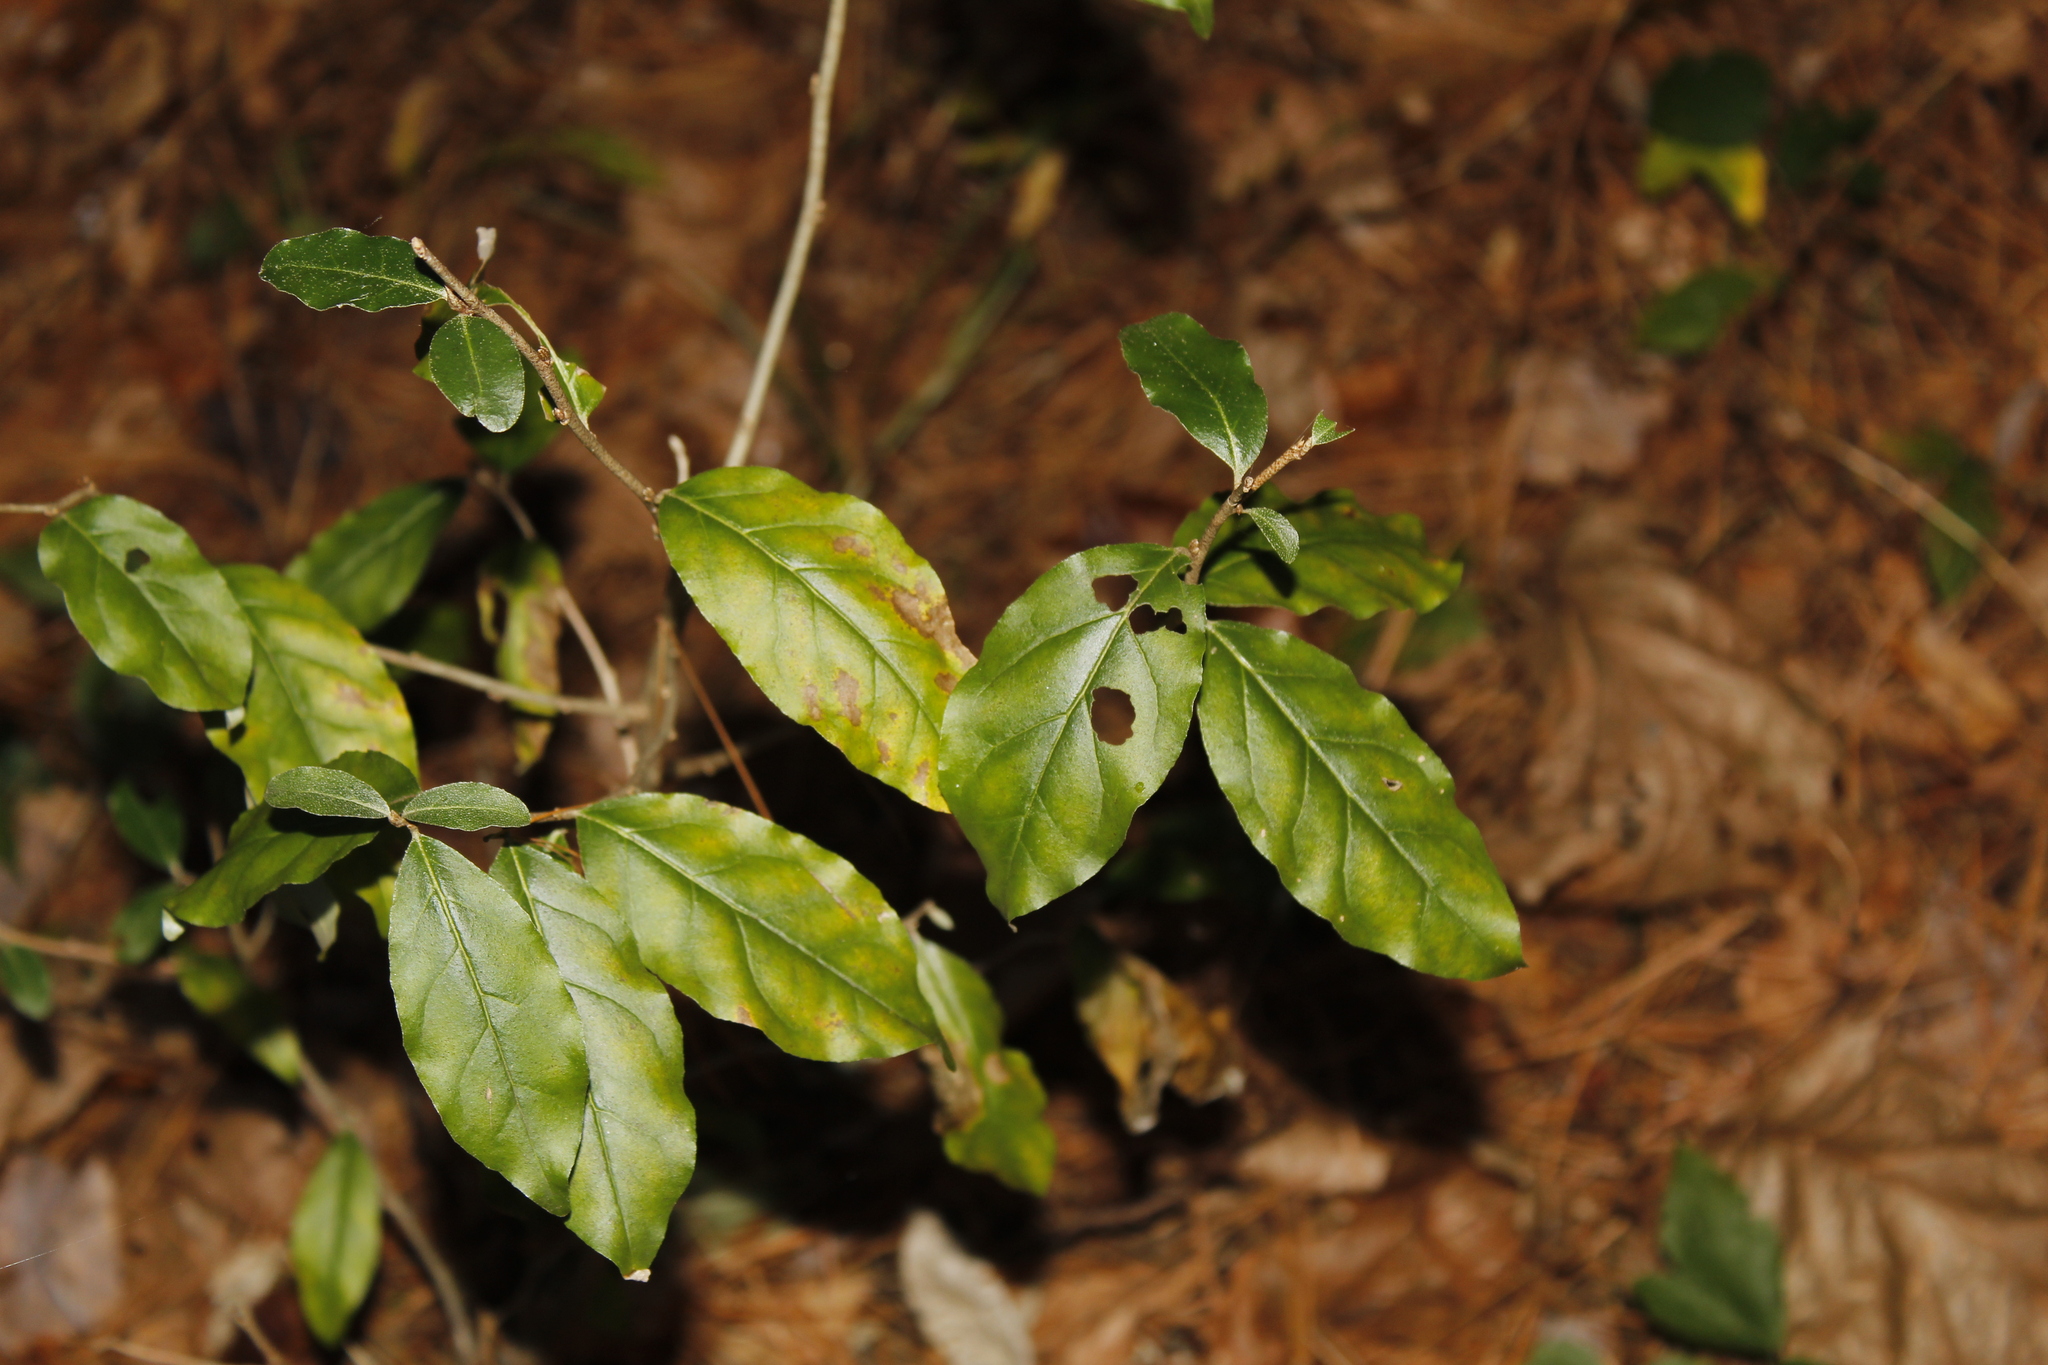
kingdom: Plantae
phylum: Tracheophyta
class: Magnoliopsida
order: Rosales
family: Elaeagnaceae
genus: Elaeagnus
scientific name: Elaeagnus umbellata
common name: Autumn olive
